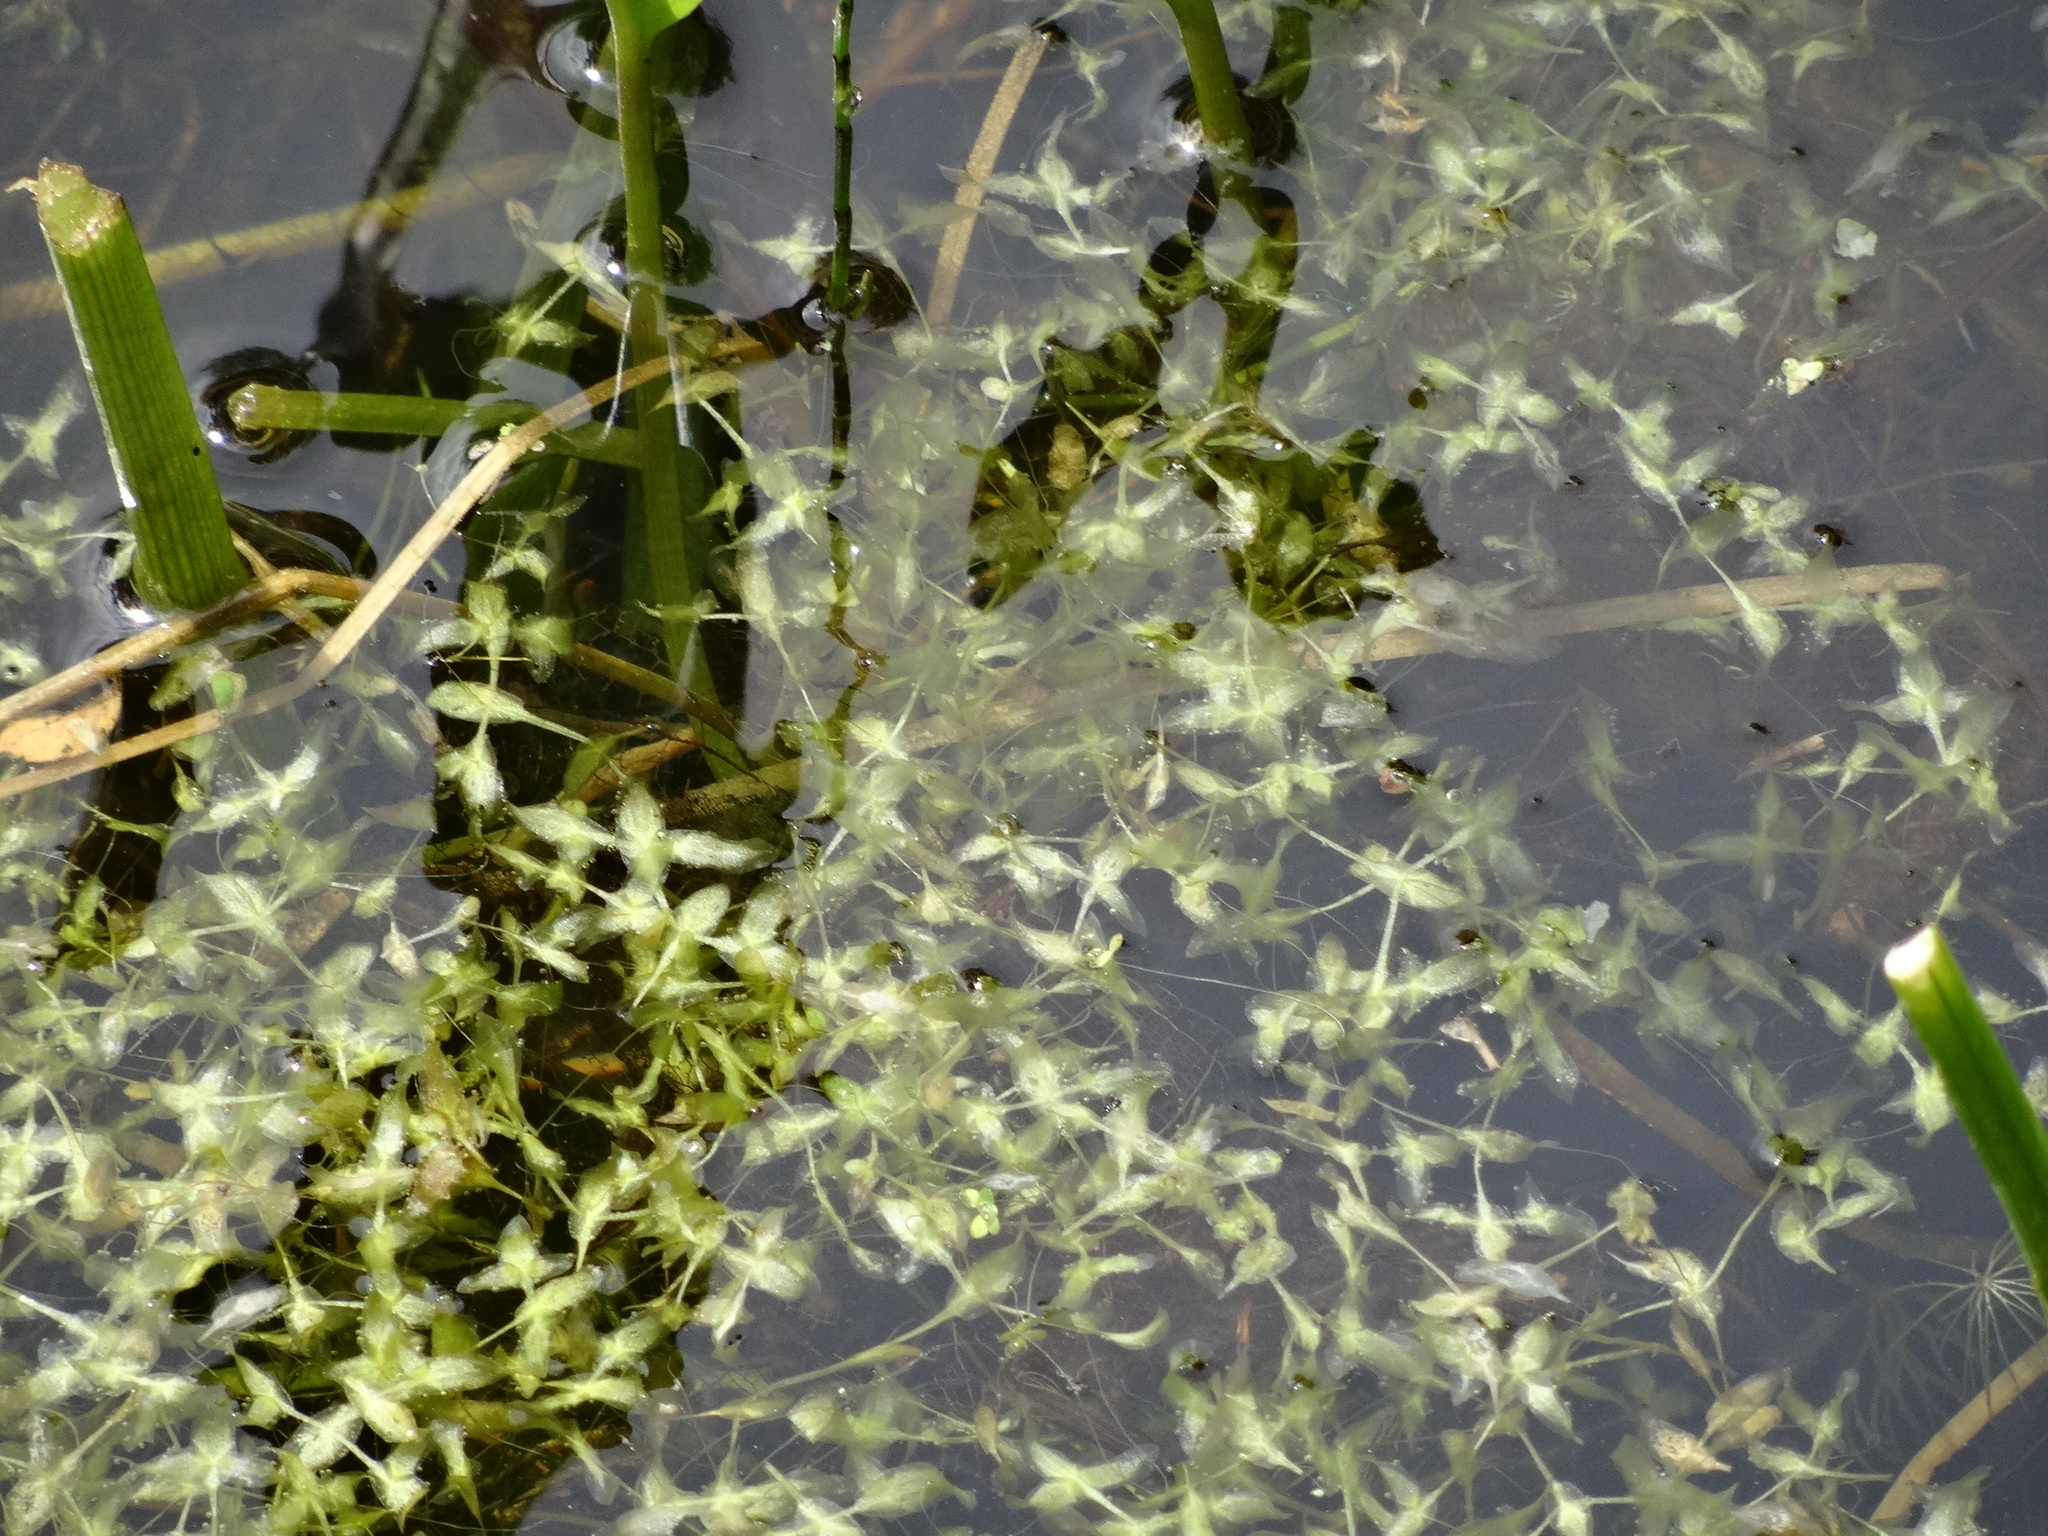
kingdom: Plantae
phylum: Tracheophyta
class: Liliopsida
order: Alismatales
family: Araceae
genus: Lemna
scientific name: Lemna trisulca
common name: Ivy-leaved duckweed
